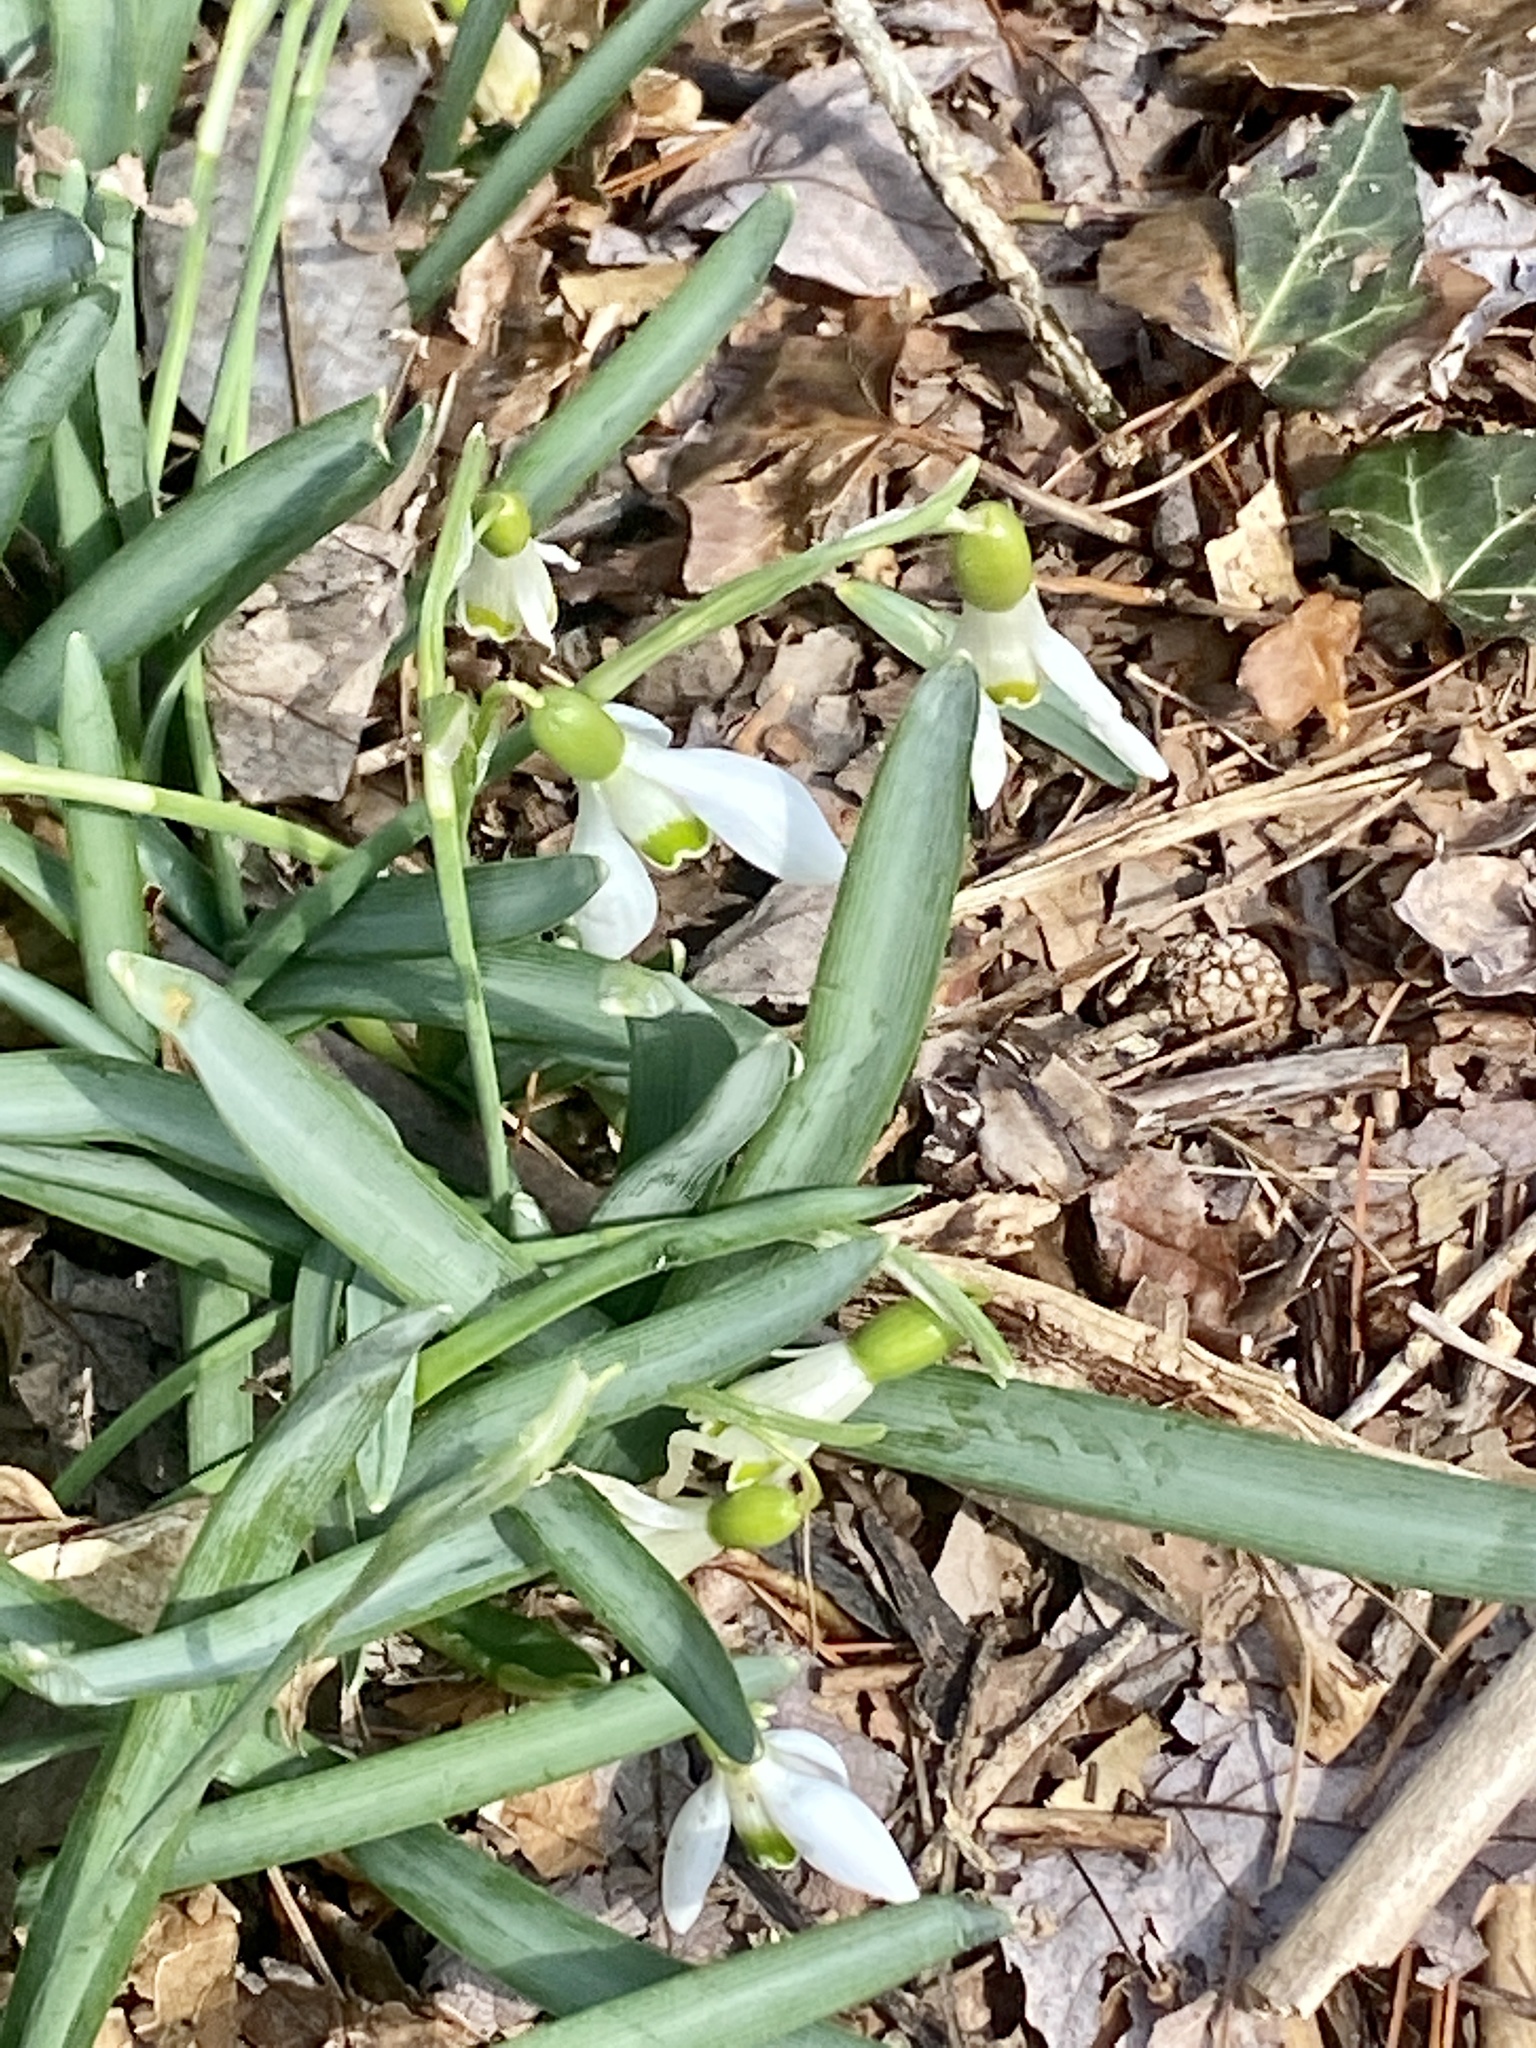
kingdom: Plantae
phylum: Tracheophyta
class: Liliopsida
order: Asparagales
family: Amaryllidaceae
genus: Galanthus
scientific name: Galanthus nivalis
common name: Snowdrop
